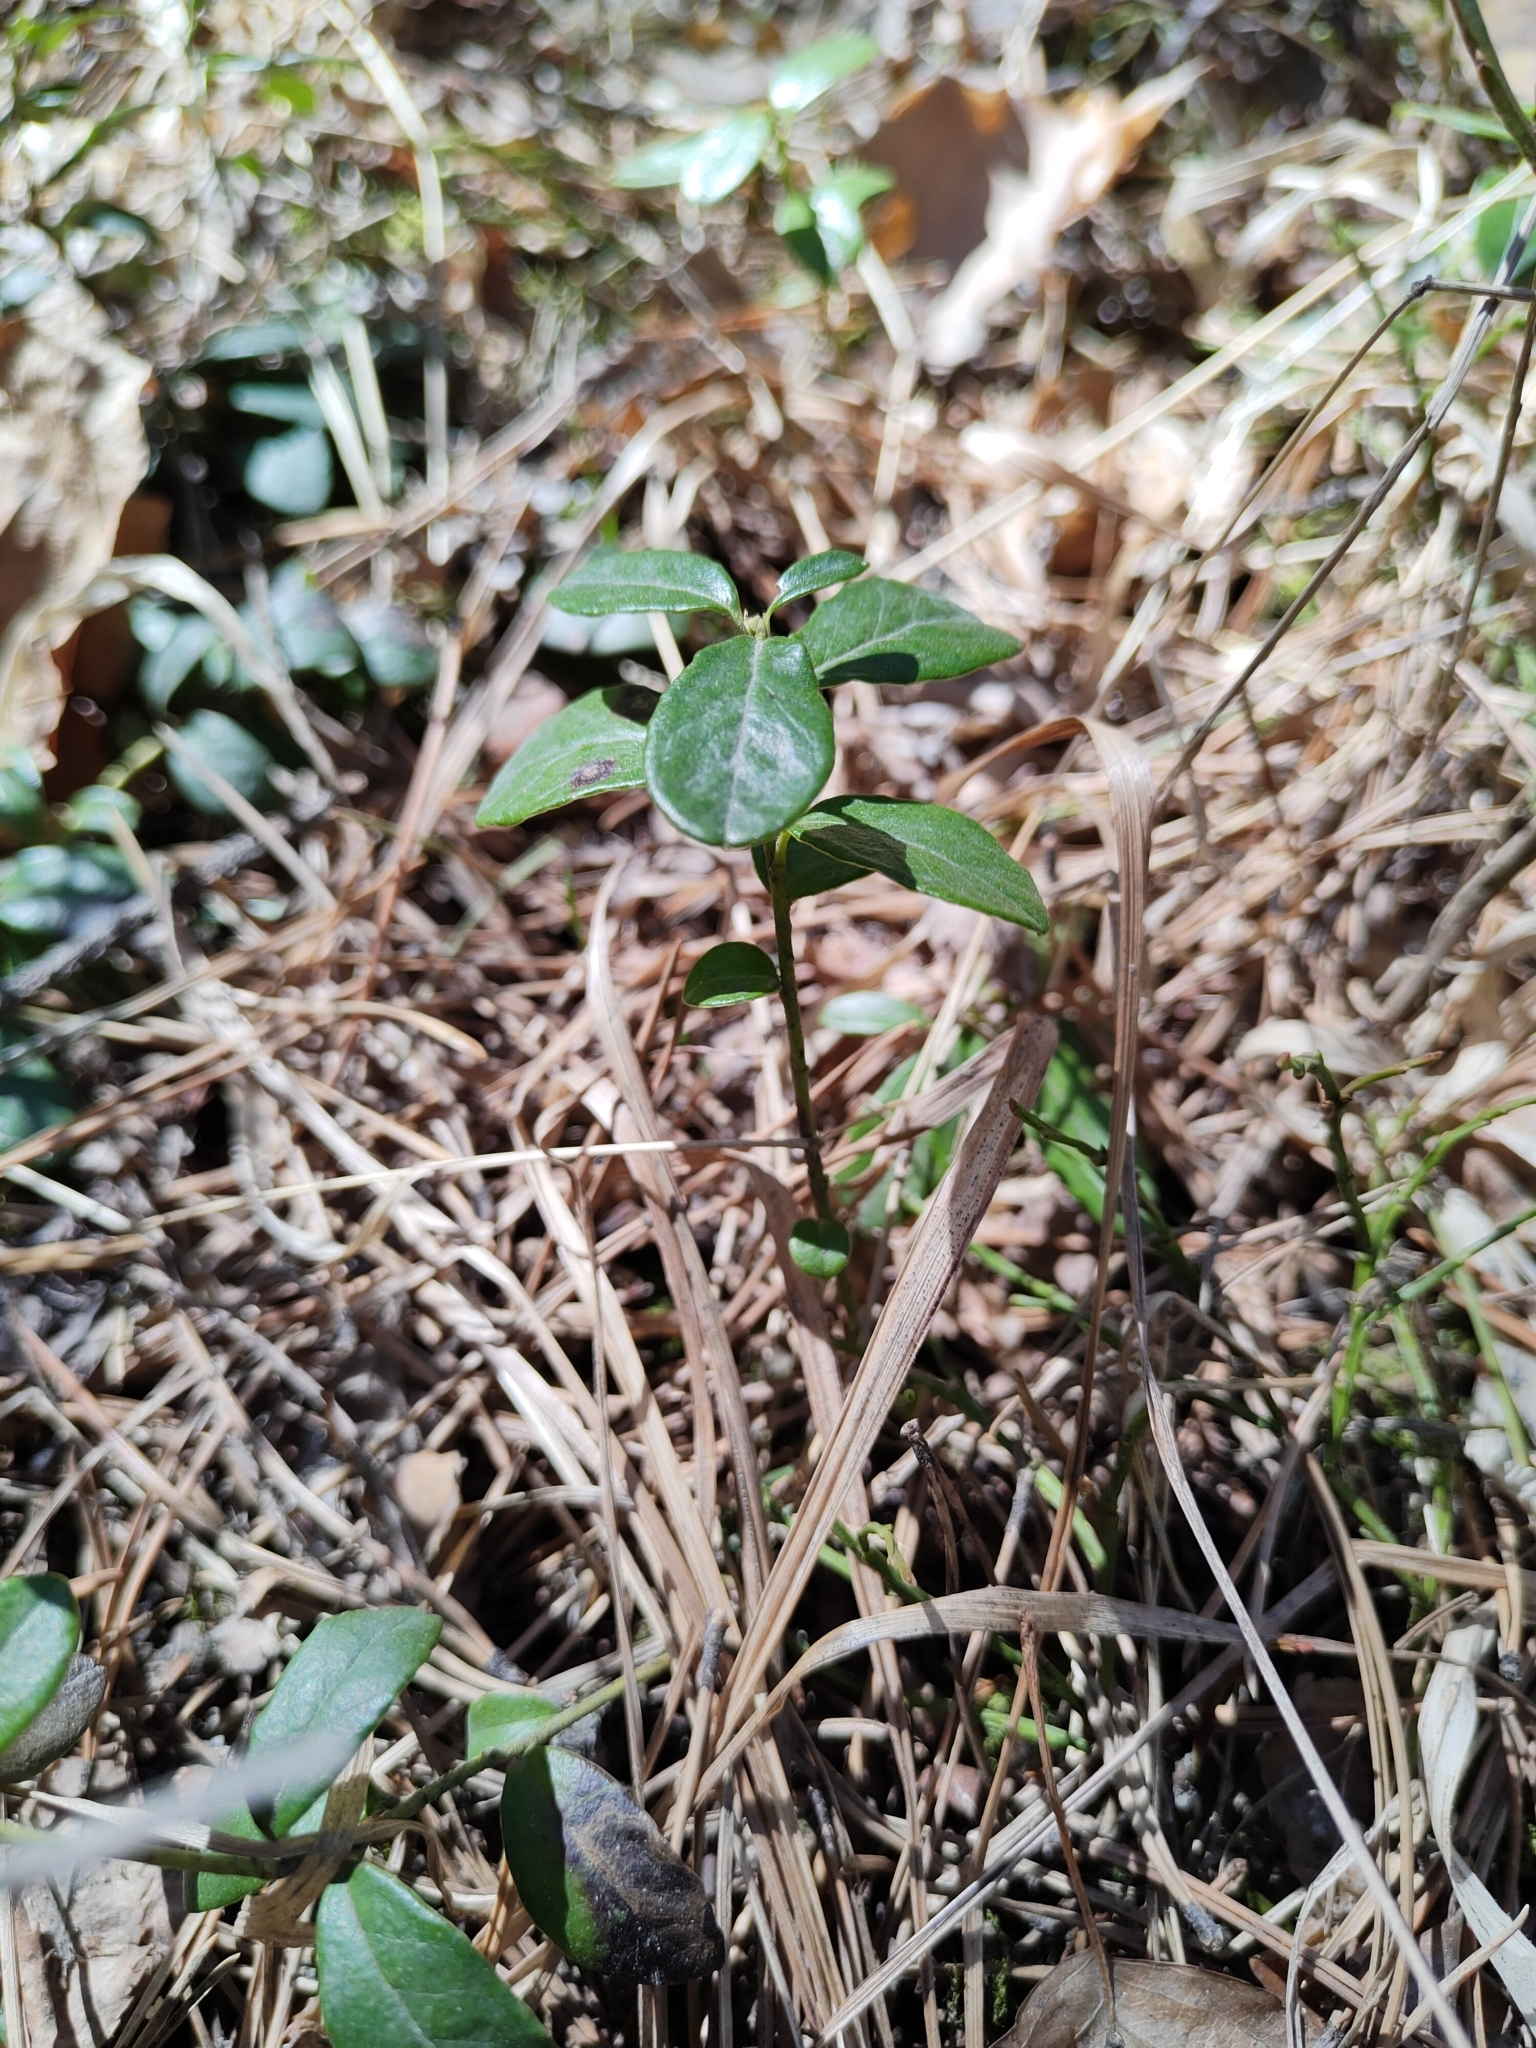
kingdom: Plantae
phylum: Tracheophyta
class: Magnoliopsida
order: Ericales
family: Ericaceae
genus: Vaccinium
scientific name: Vaccinium vitis-idaea
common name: Cowberry
